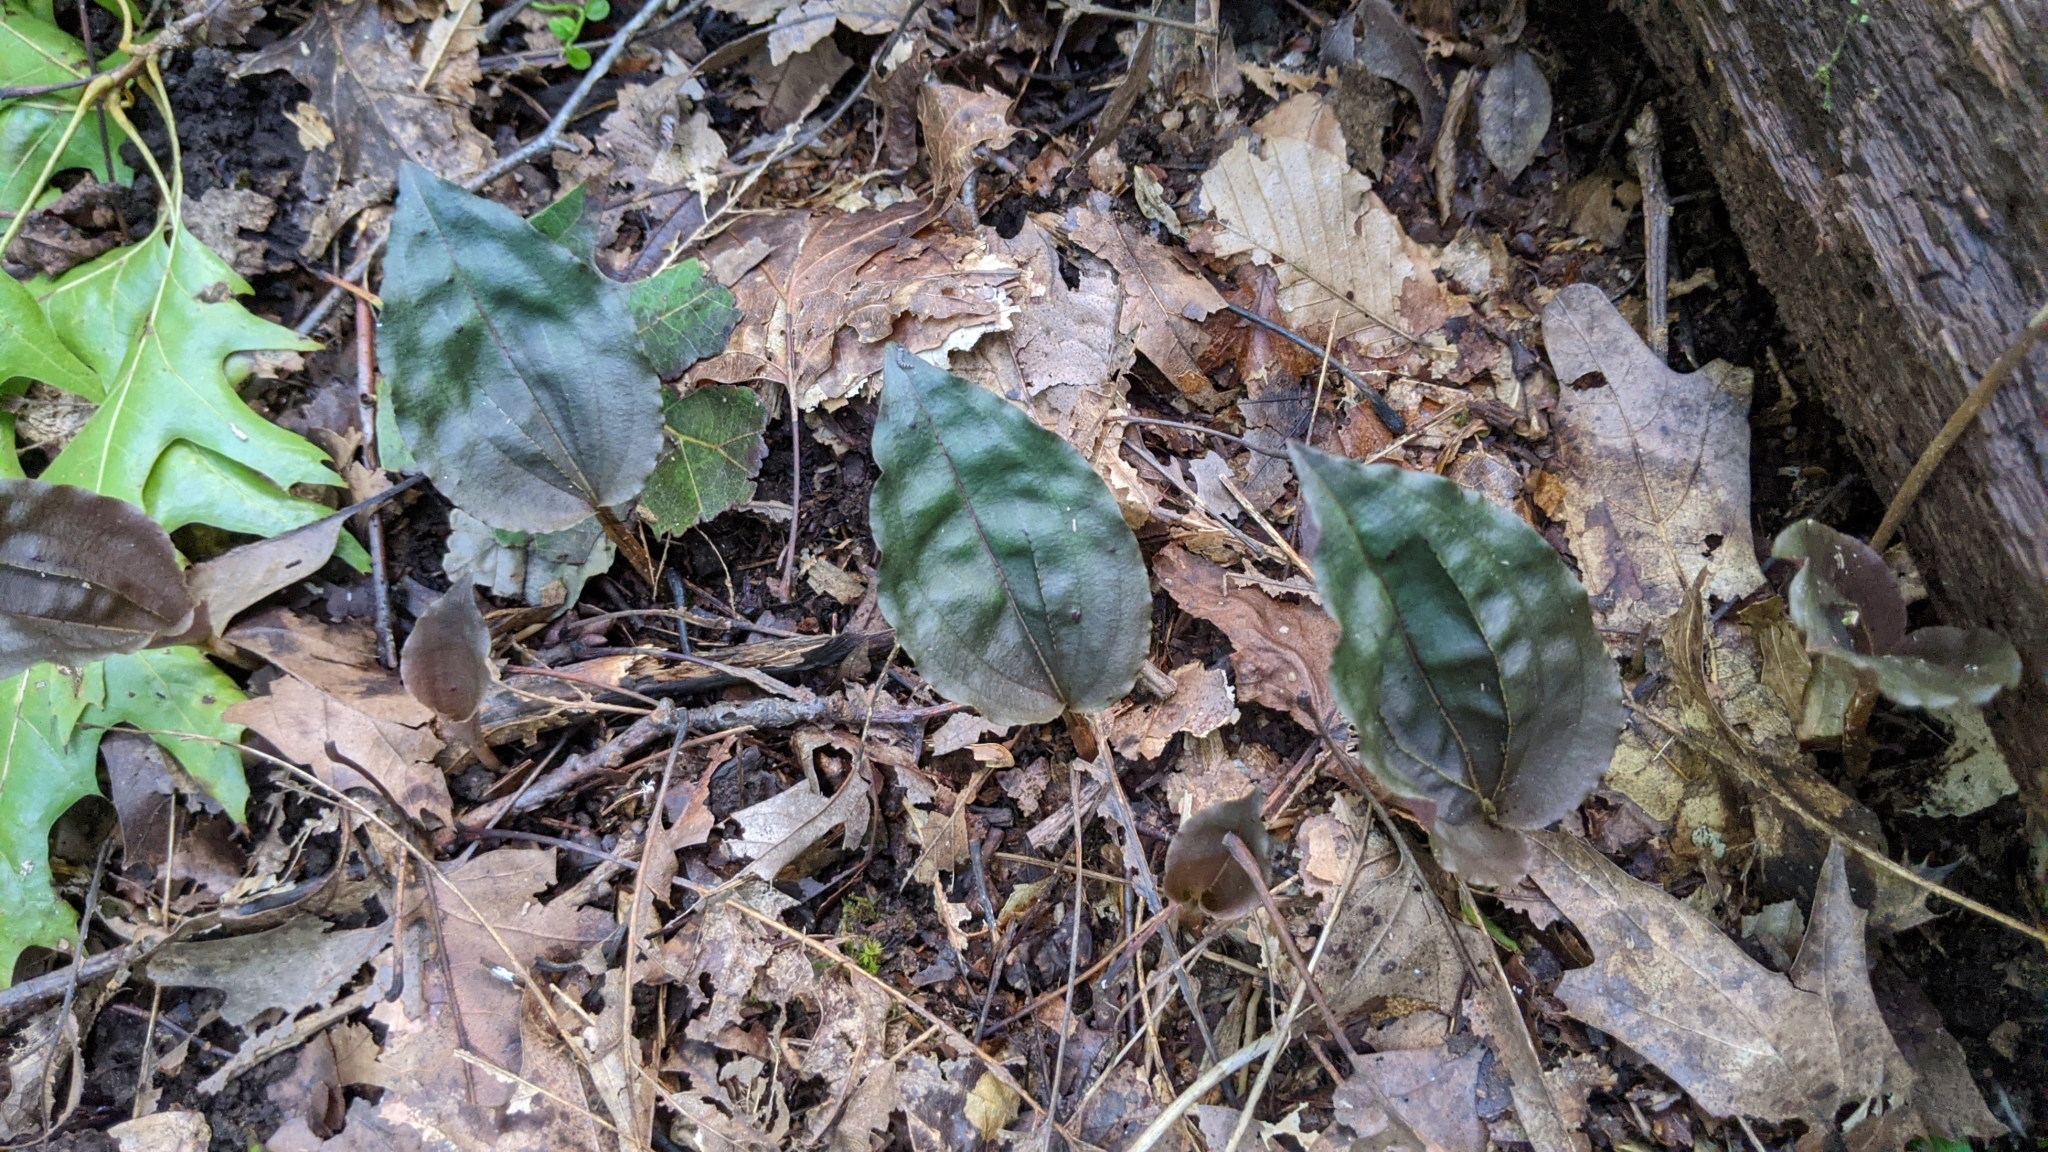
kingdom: Plantae
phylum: Tracheophyta
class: Liliopsida
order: Asparagales
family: Orchidaceae
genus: Tipularia
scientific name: Tipularia discolor
